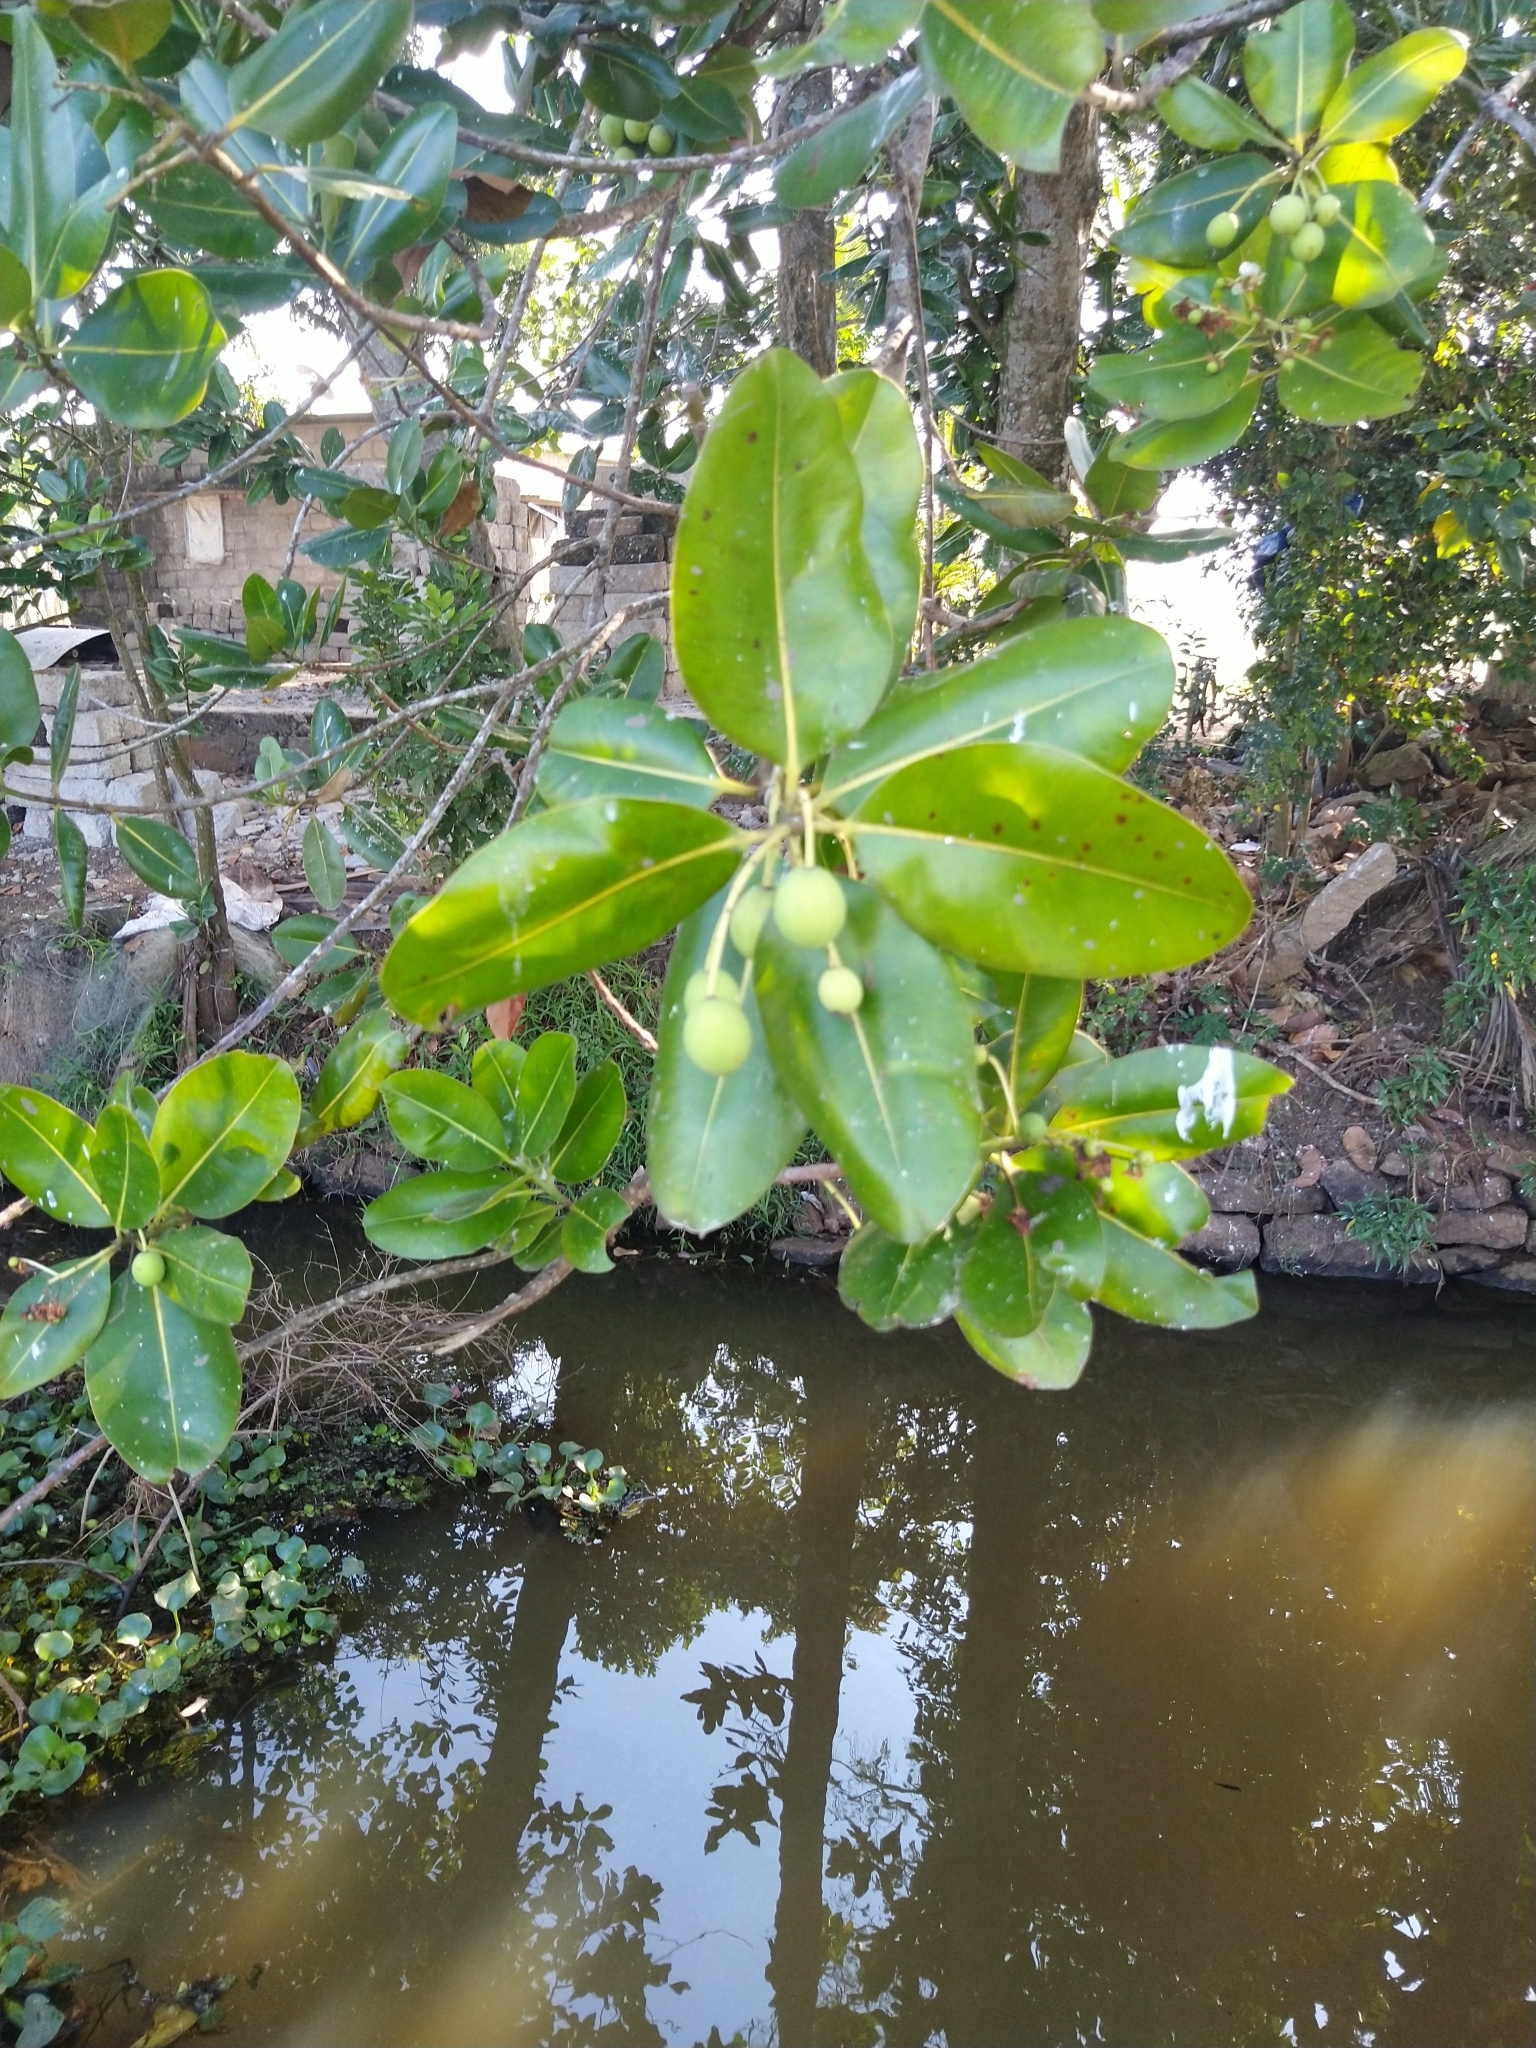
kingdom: Plantae
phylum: Tracheophyta
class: Magnoliopsida
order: Malpighiales
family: Calophyllaceae
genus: Calophyllum
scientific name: Calophyllum inophyllum
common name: Alexandrian laurel
